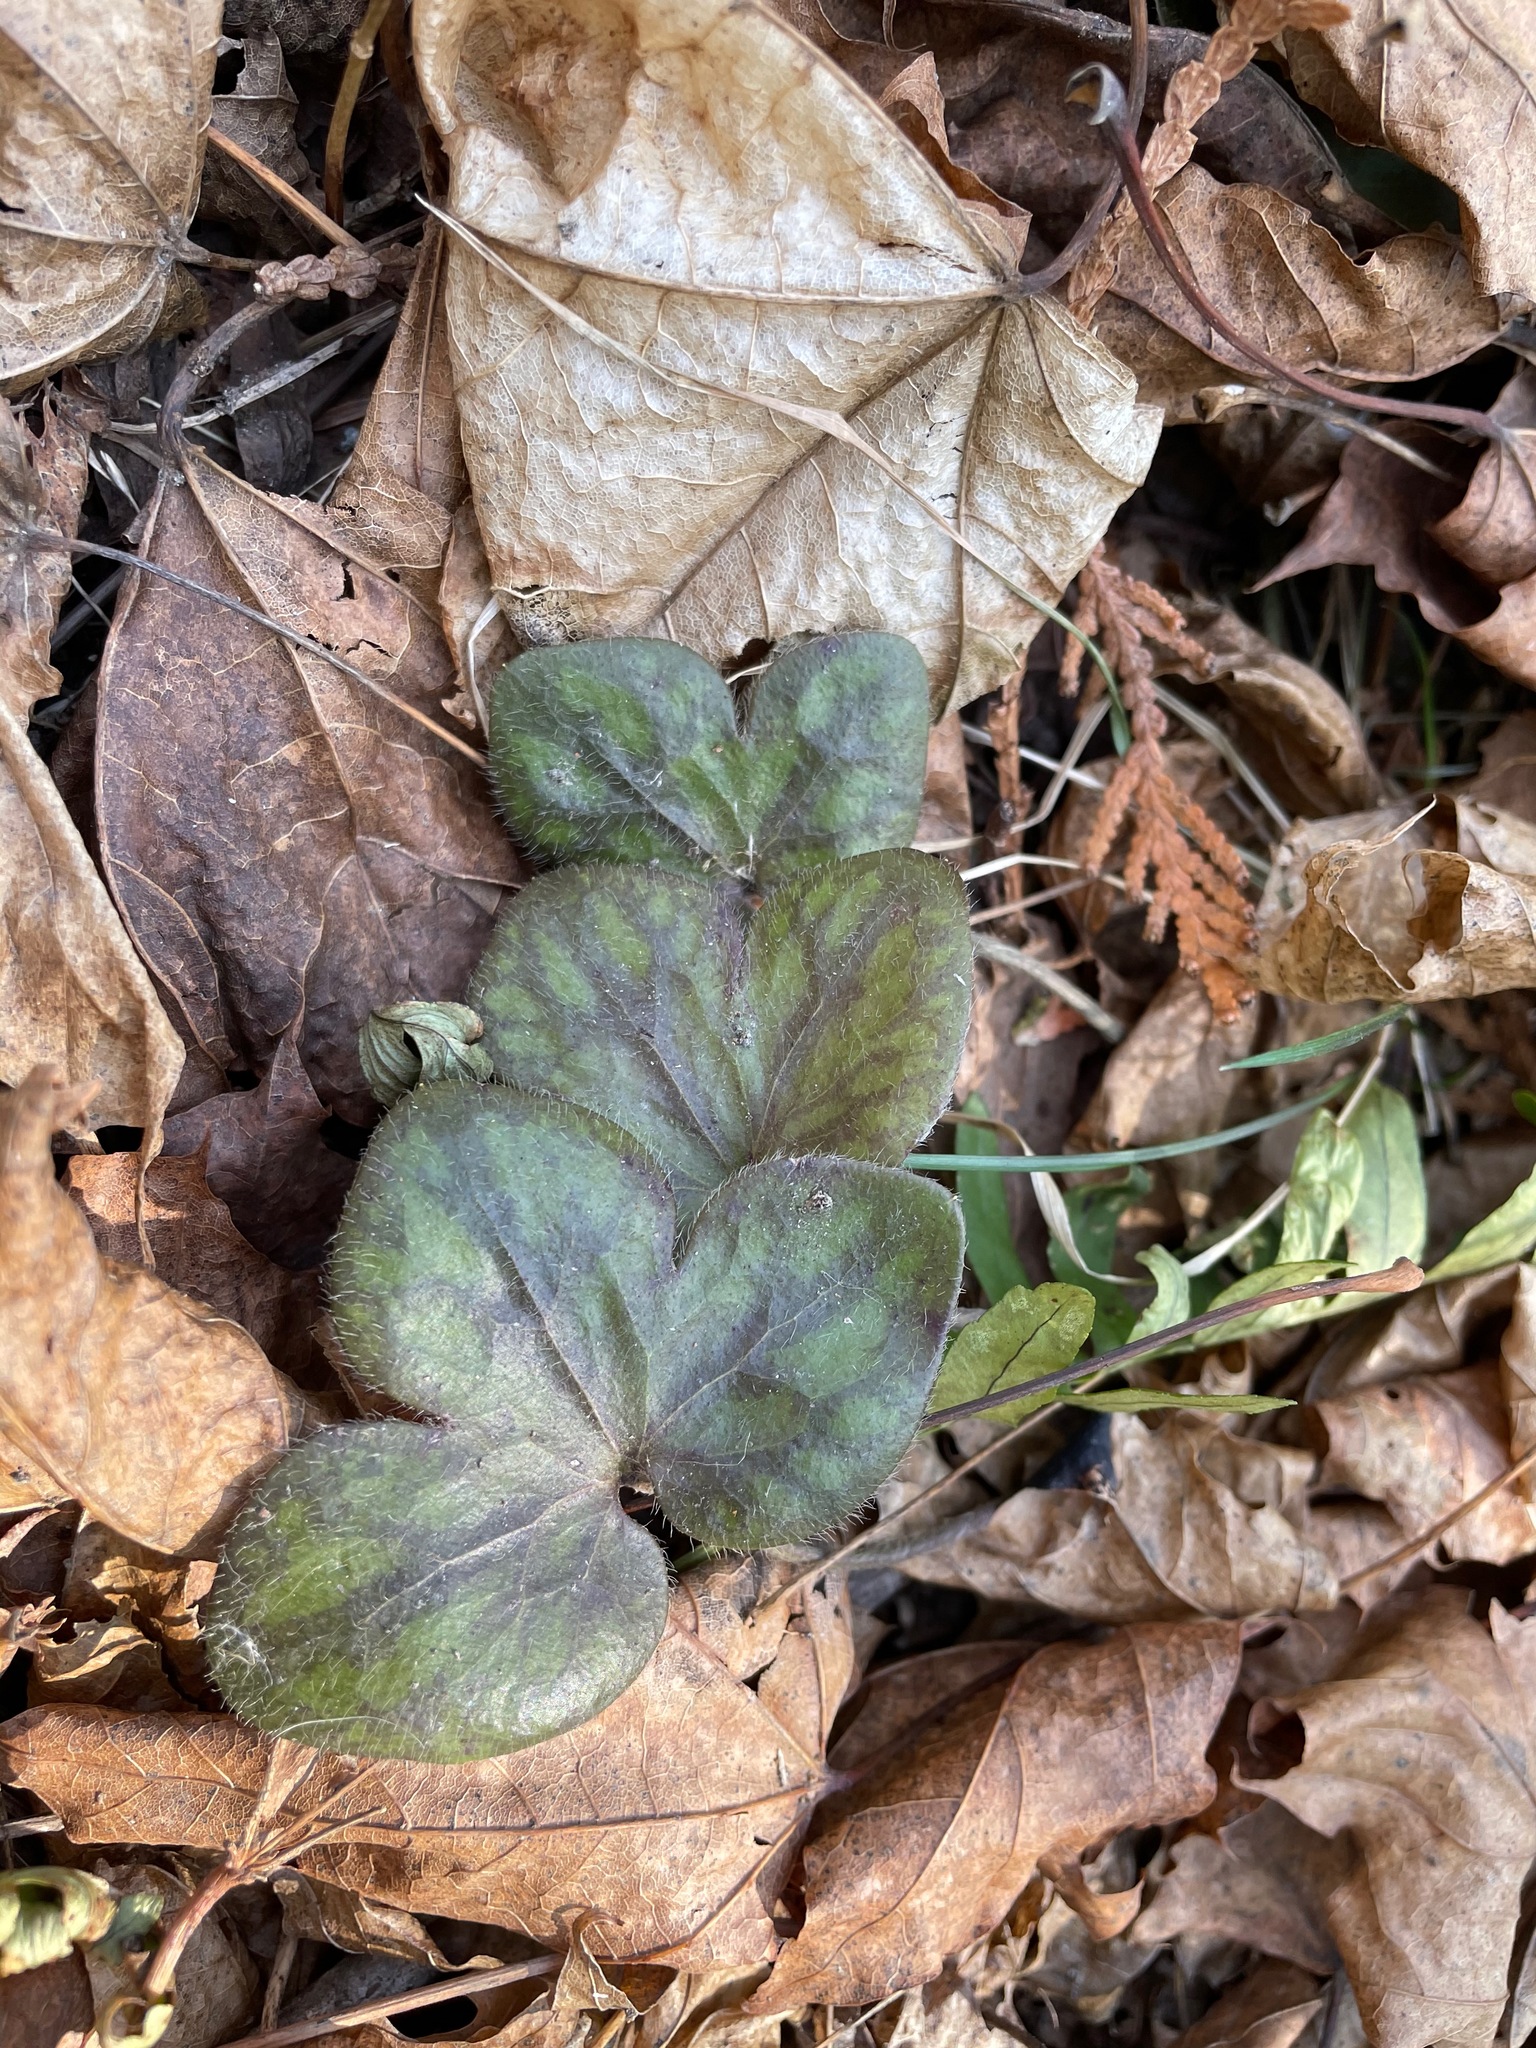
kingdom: Plantae
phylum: Tracheophyta
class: Magnoliopsida
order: Ranunculales
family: Ranunculaceae
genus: Hepatica
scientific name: Hepatica americana
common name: American hepatica
